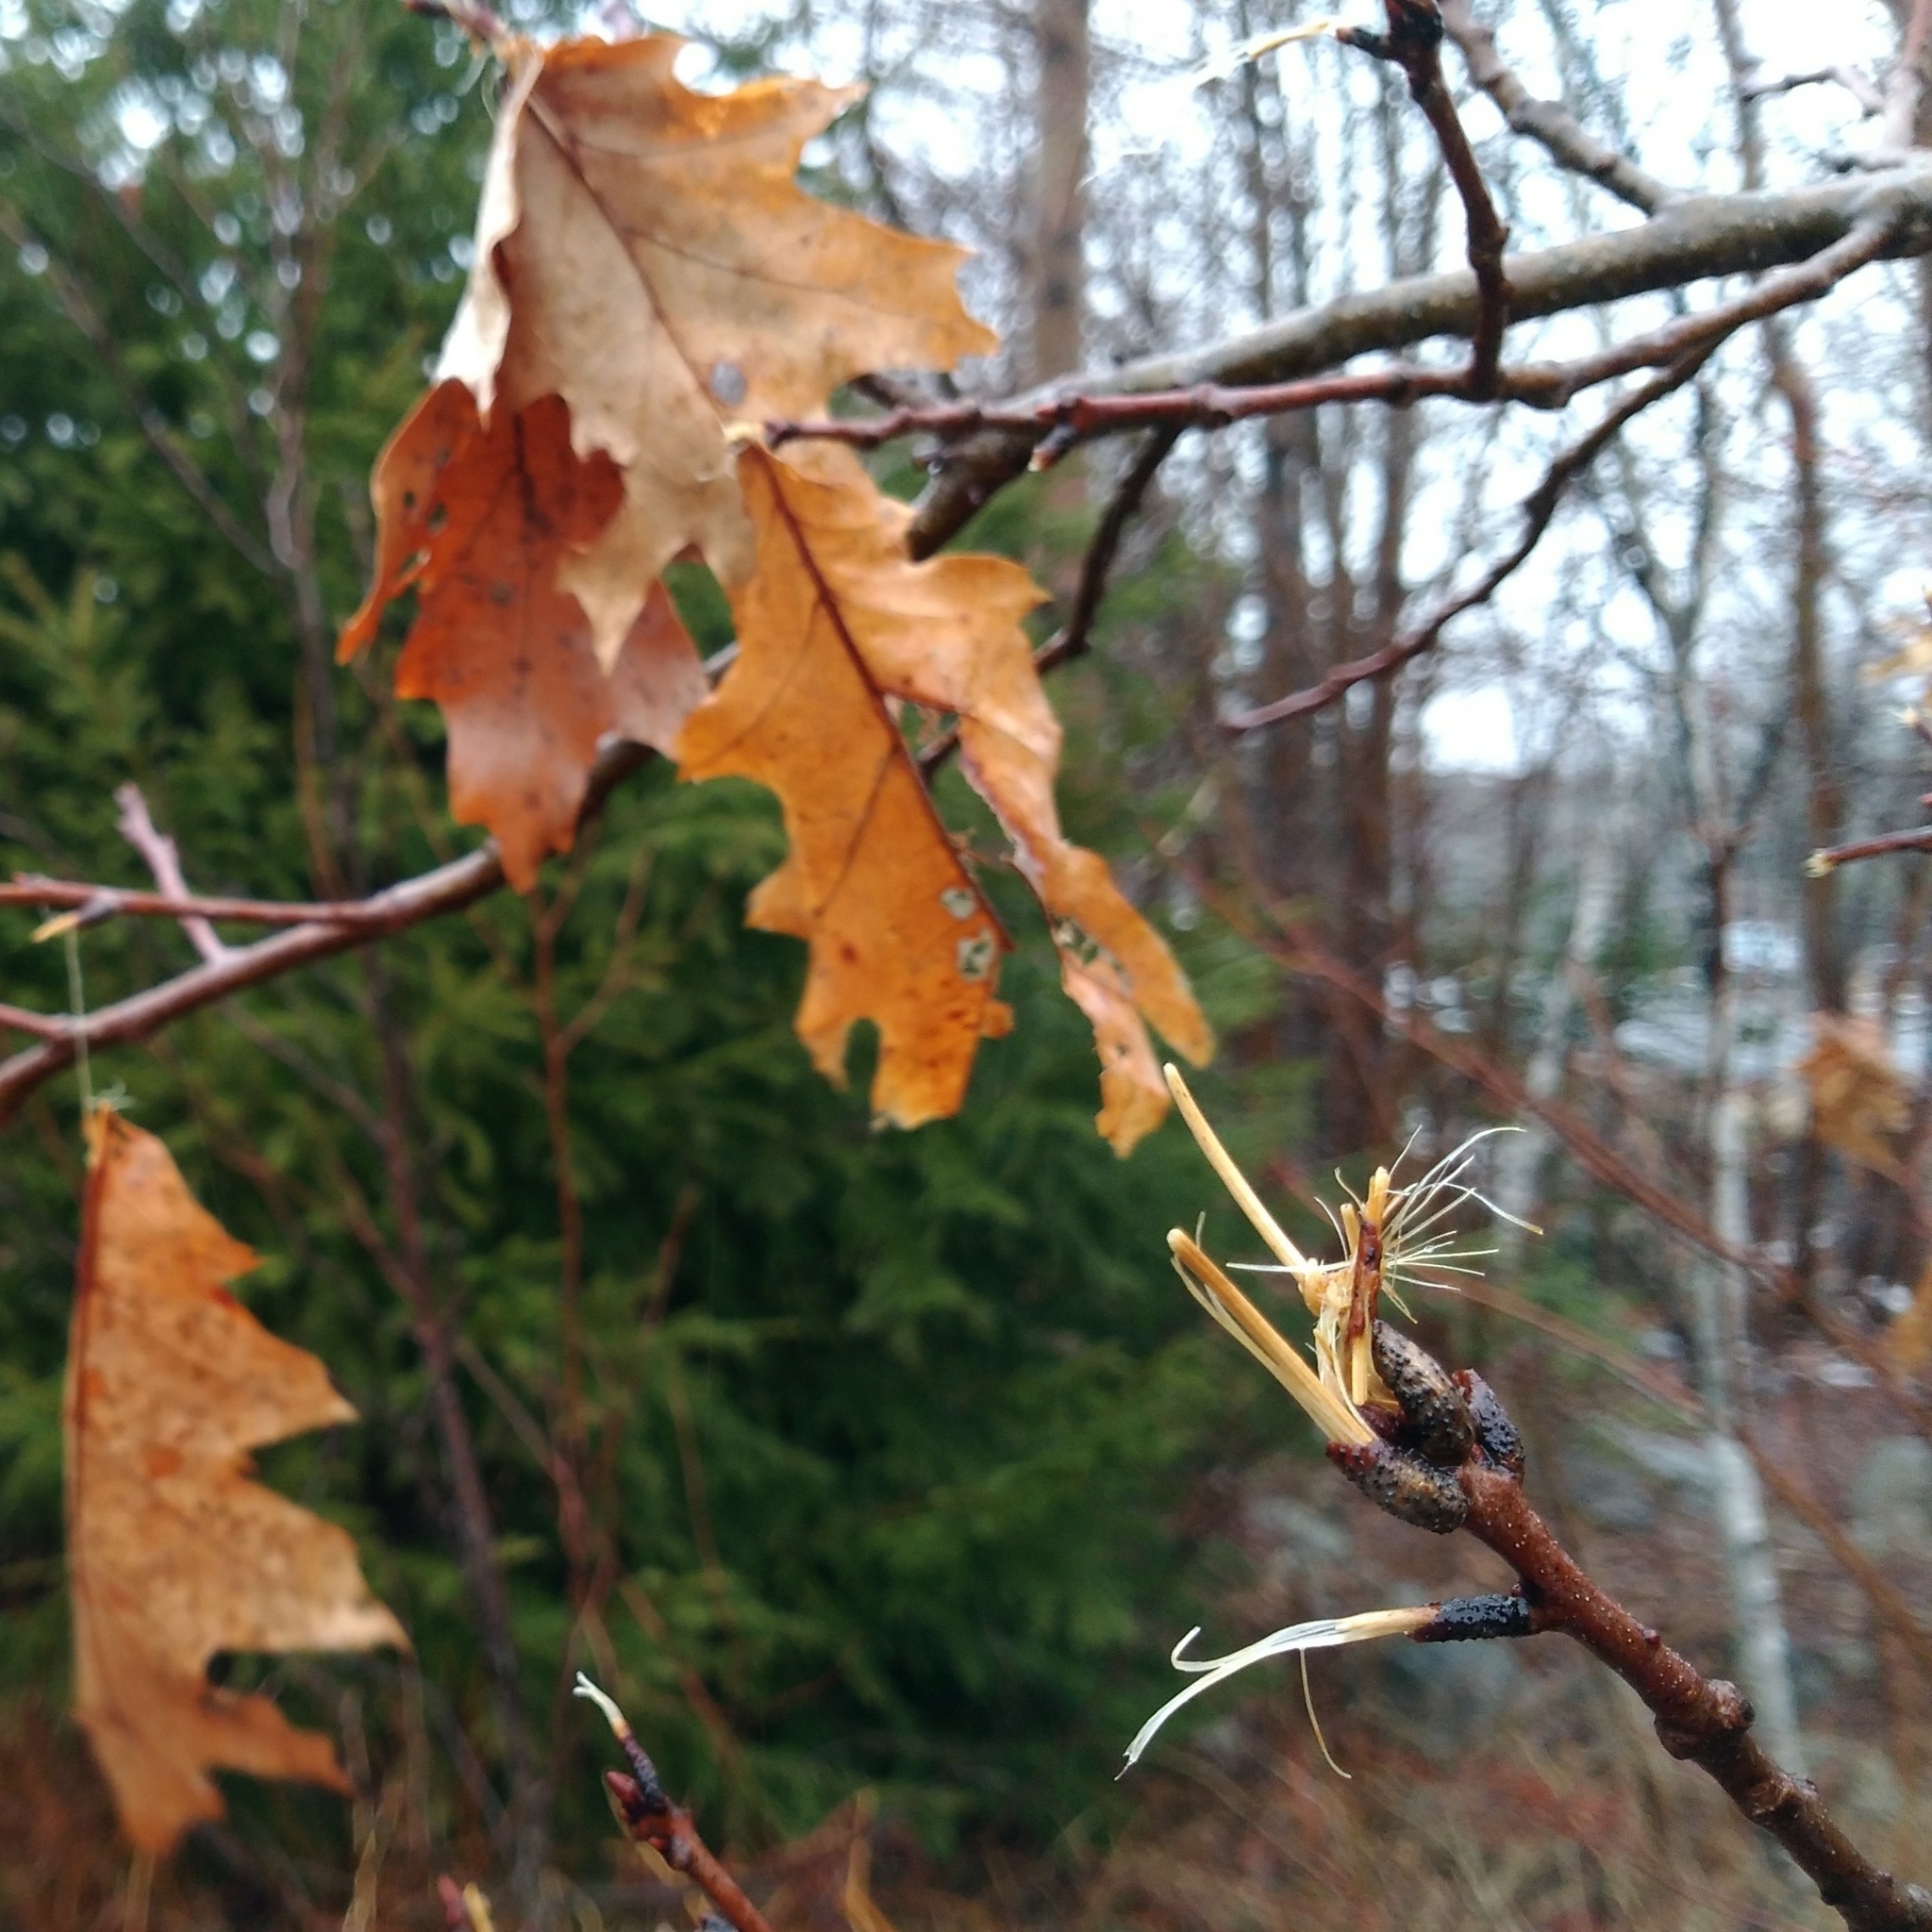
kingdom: Plantae
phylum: Tracheophyta
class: Magnoliopsida
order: Fagales
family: Fagaceae
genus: Quercus
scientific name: Quercus rubra
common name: Red oak
